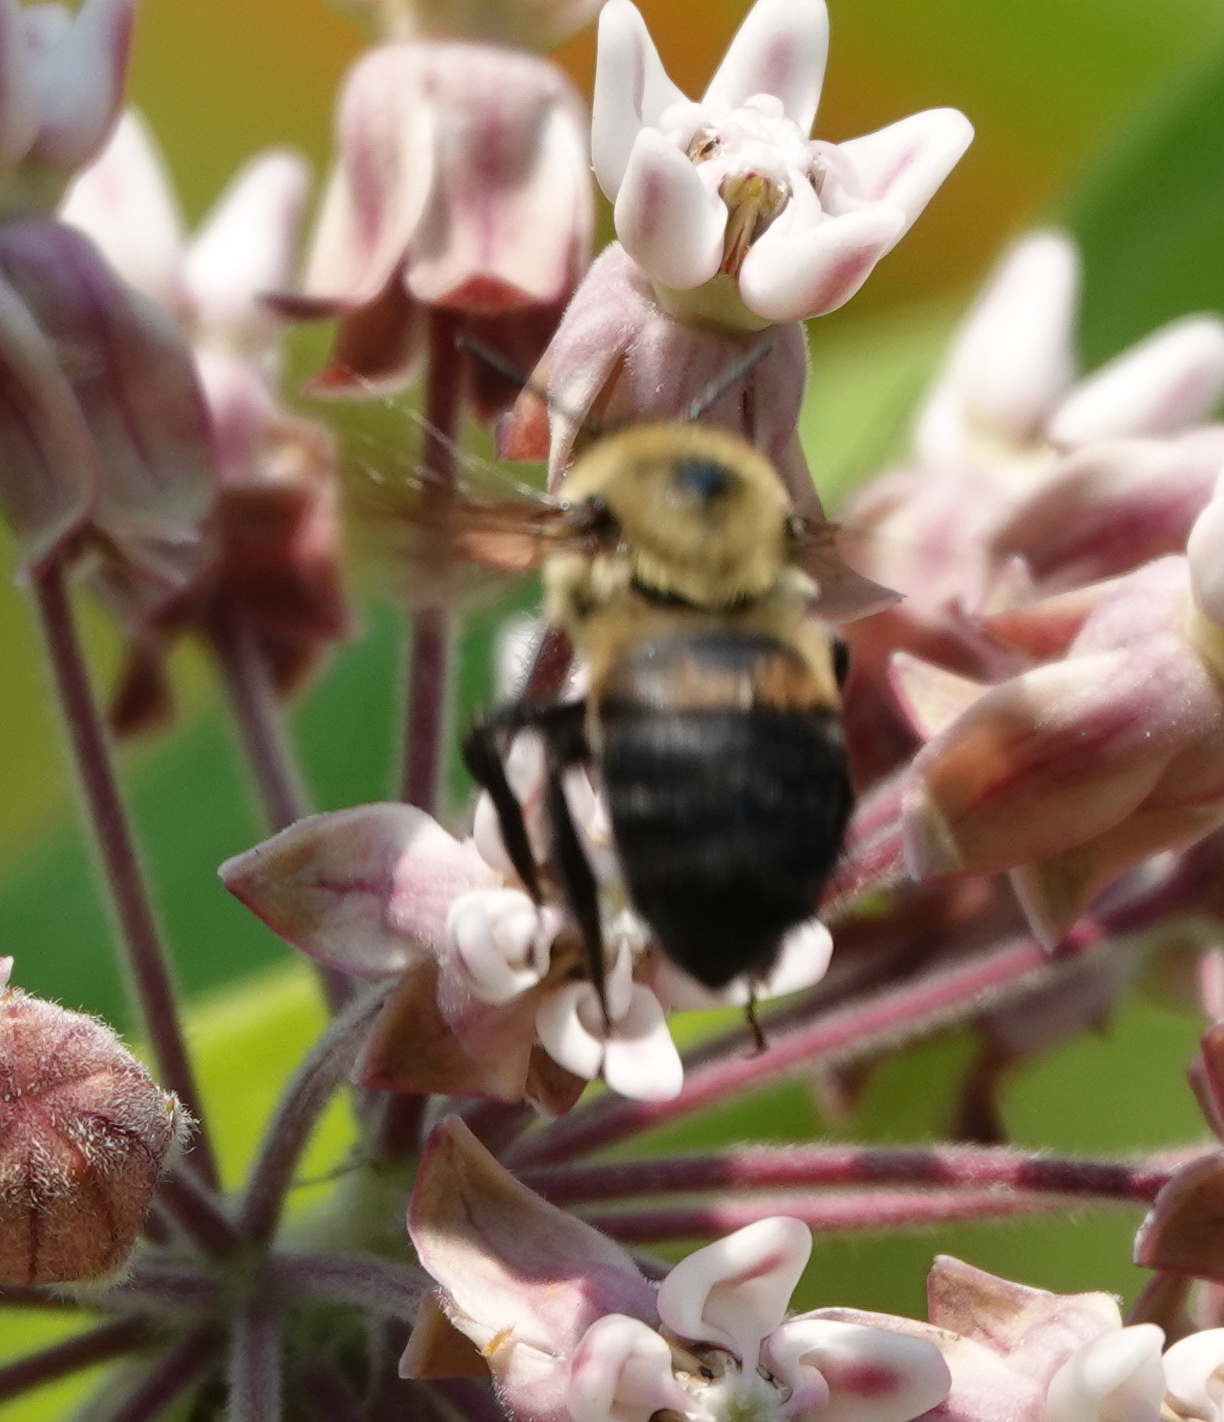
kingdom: Animalia
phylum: Arthropoda
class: Insecta
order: Hymenoptera
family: Apidae
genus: Bombus
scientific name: Bombus griseocollis
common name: Brown-belted bumble bee
